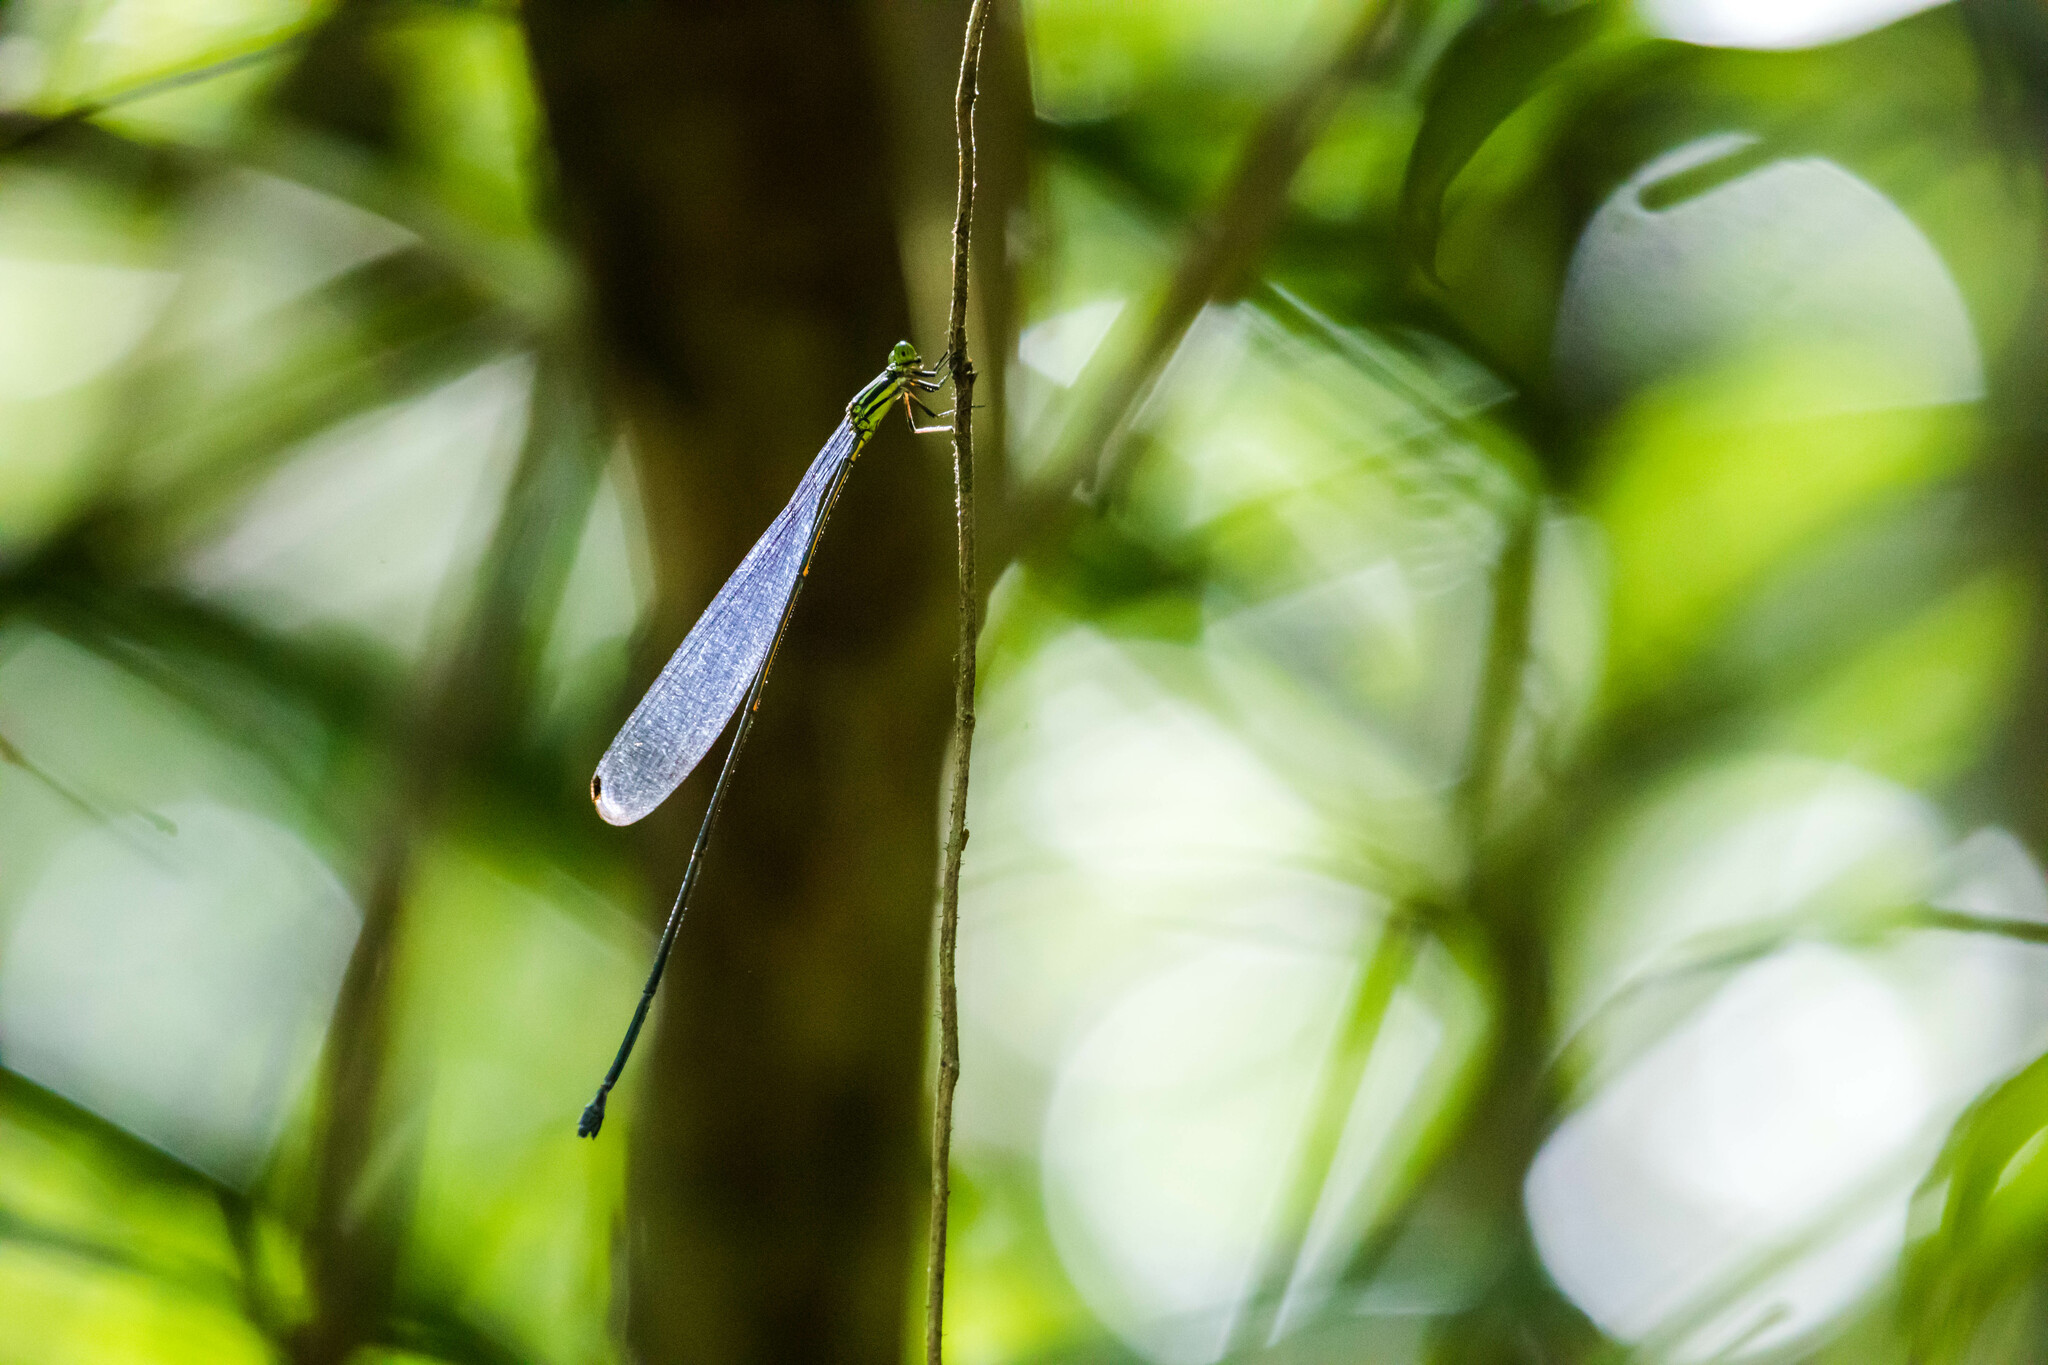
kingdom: Animalia
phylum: Arthropoda
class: Insecta
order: Odonata
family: Coenagrionidae
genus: Mecistogaster
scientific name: Mecistogaster linearis
